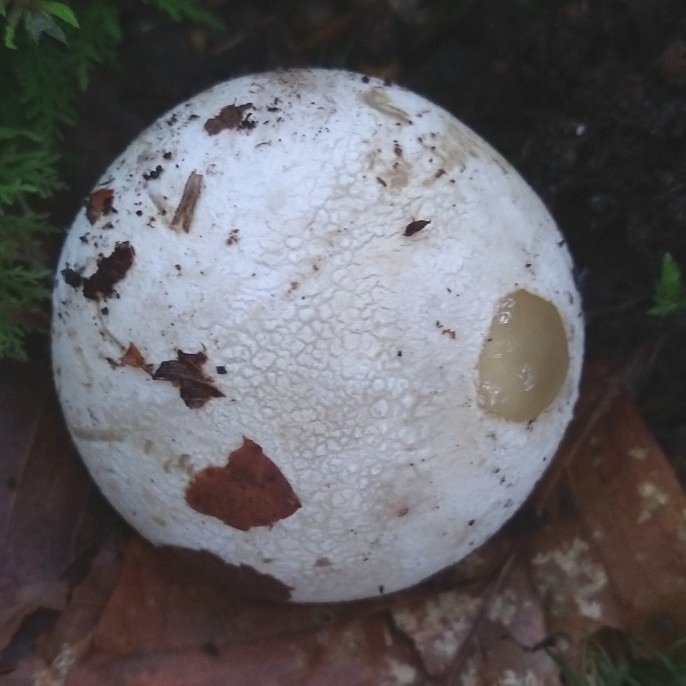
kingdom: Fungi
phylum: Basidiomycota
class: Agaricomycetes
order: Phallales
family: Phallaceae
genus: Phallus
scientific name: Phallus impudicus
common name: Common stinkhorn
